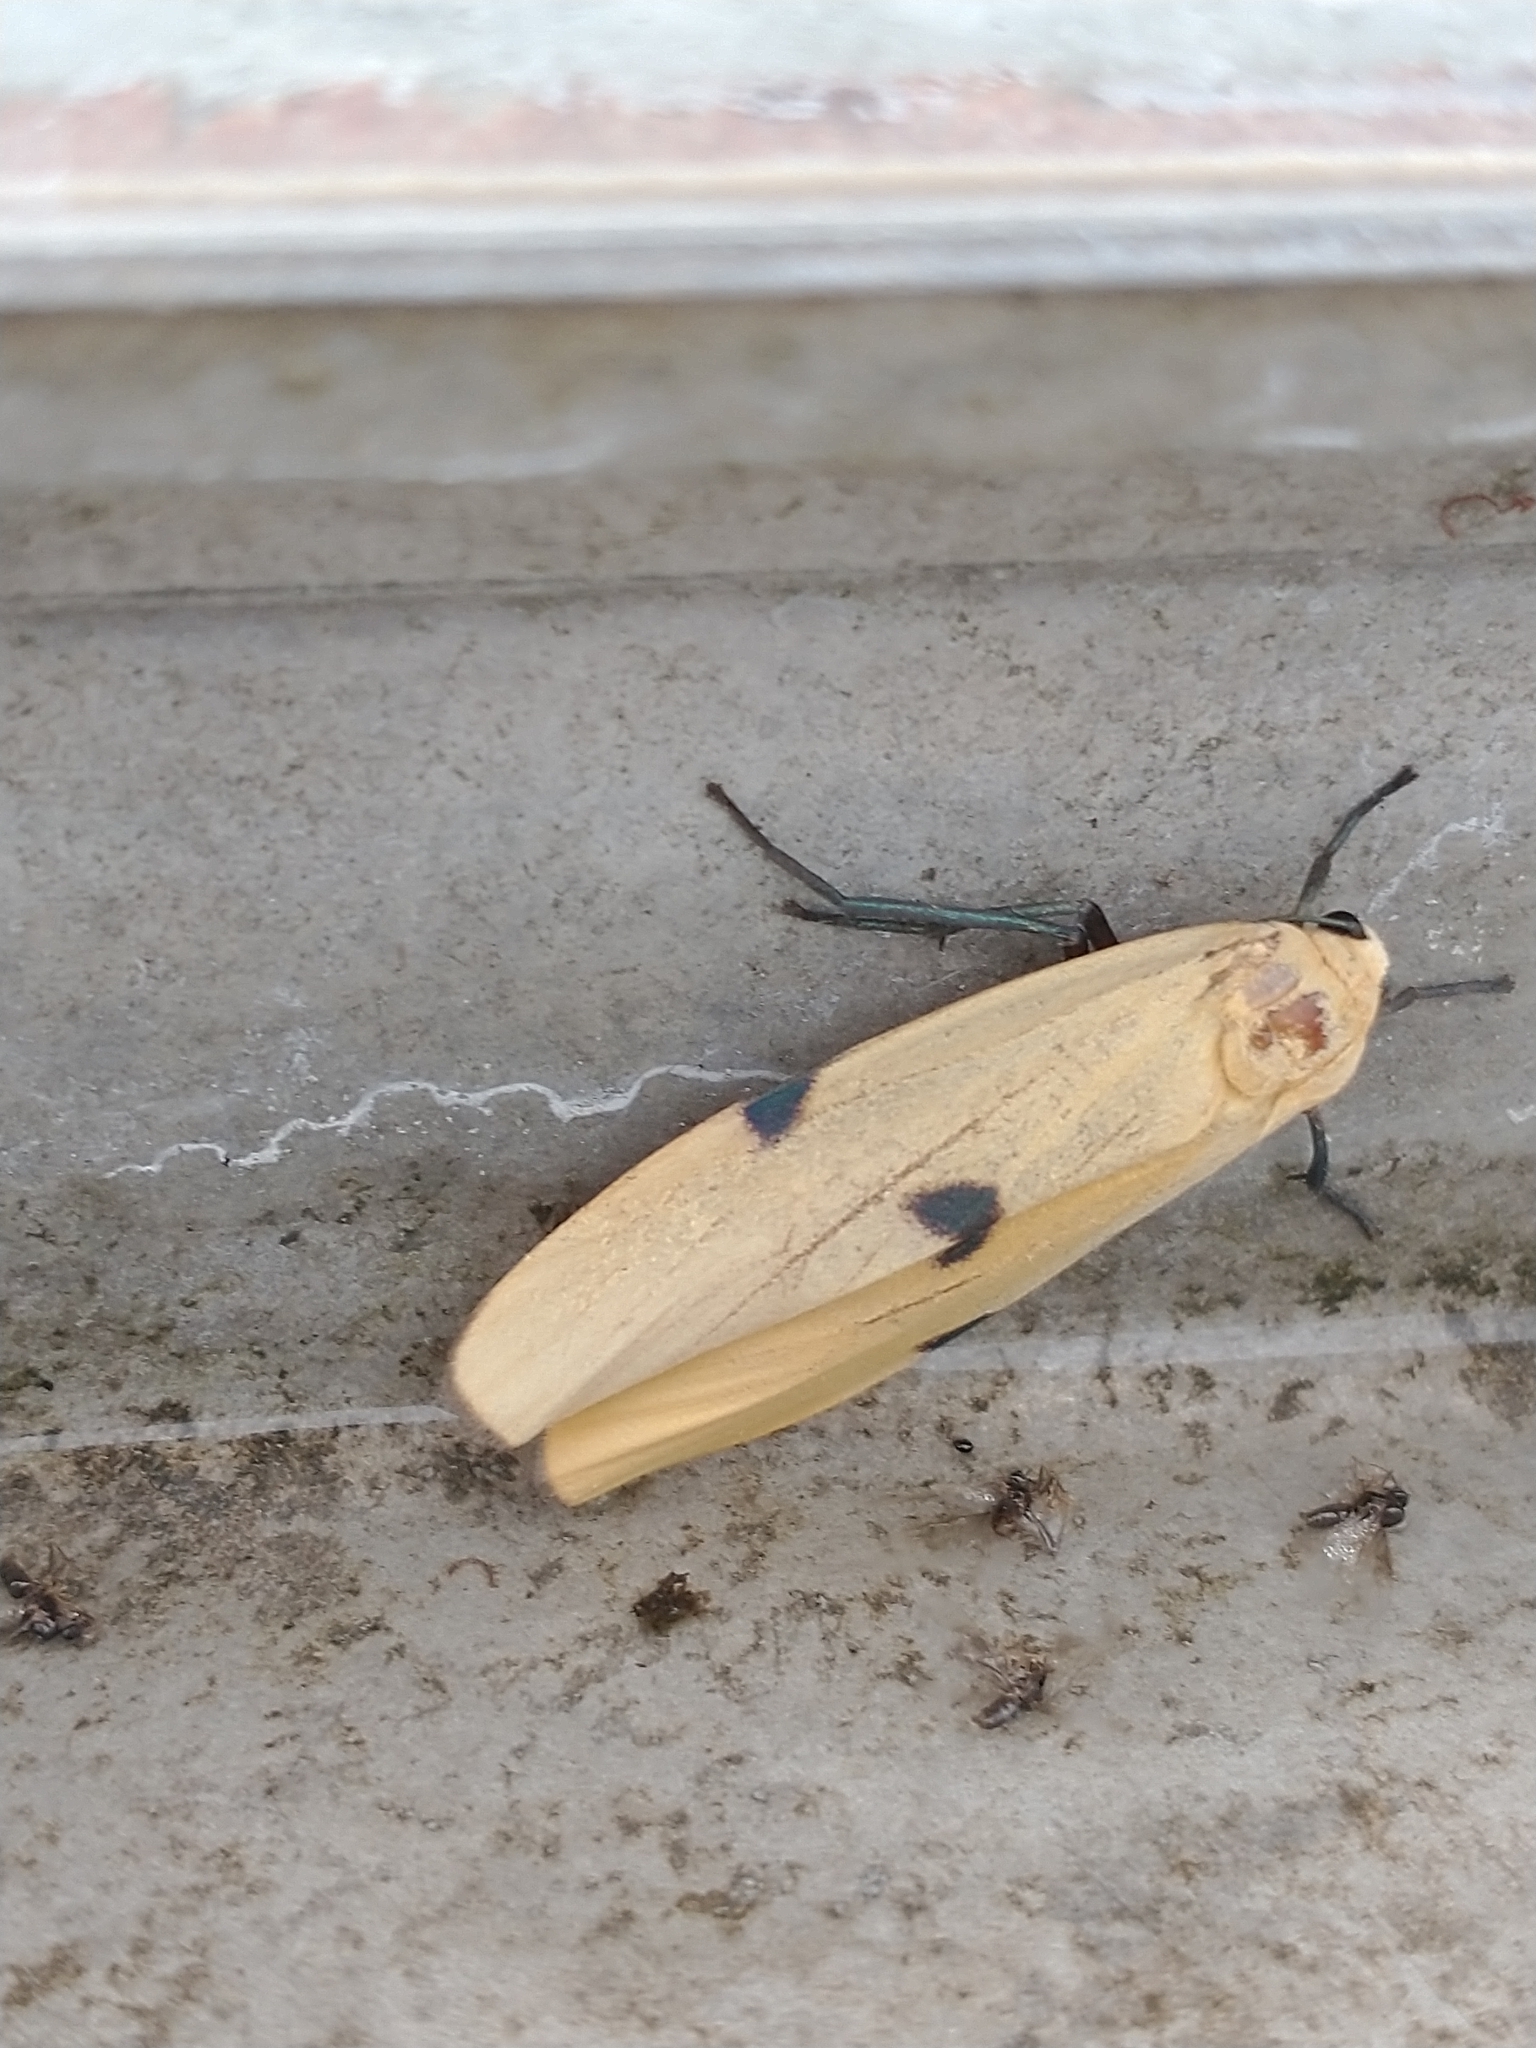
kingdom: Animalia
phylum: Arthropoda
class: Insecta
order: Lepidoptera
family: Erebidae
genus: Lithosia
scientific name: Lithosia quadra
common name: Four-spotted footman
